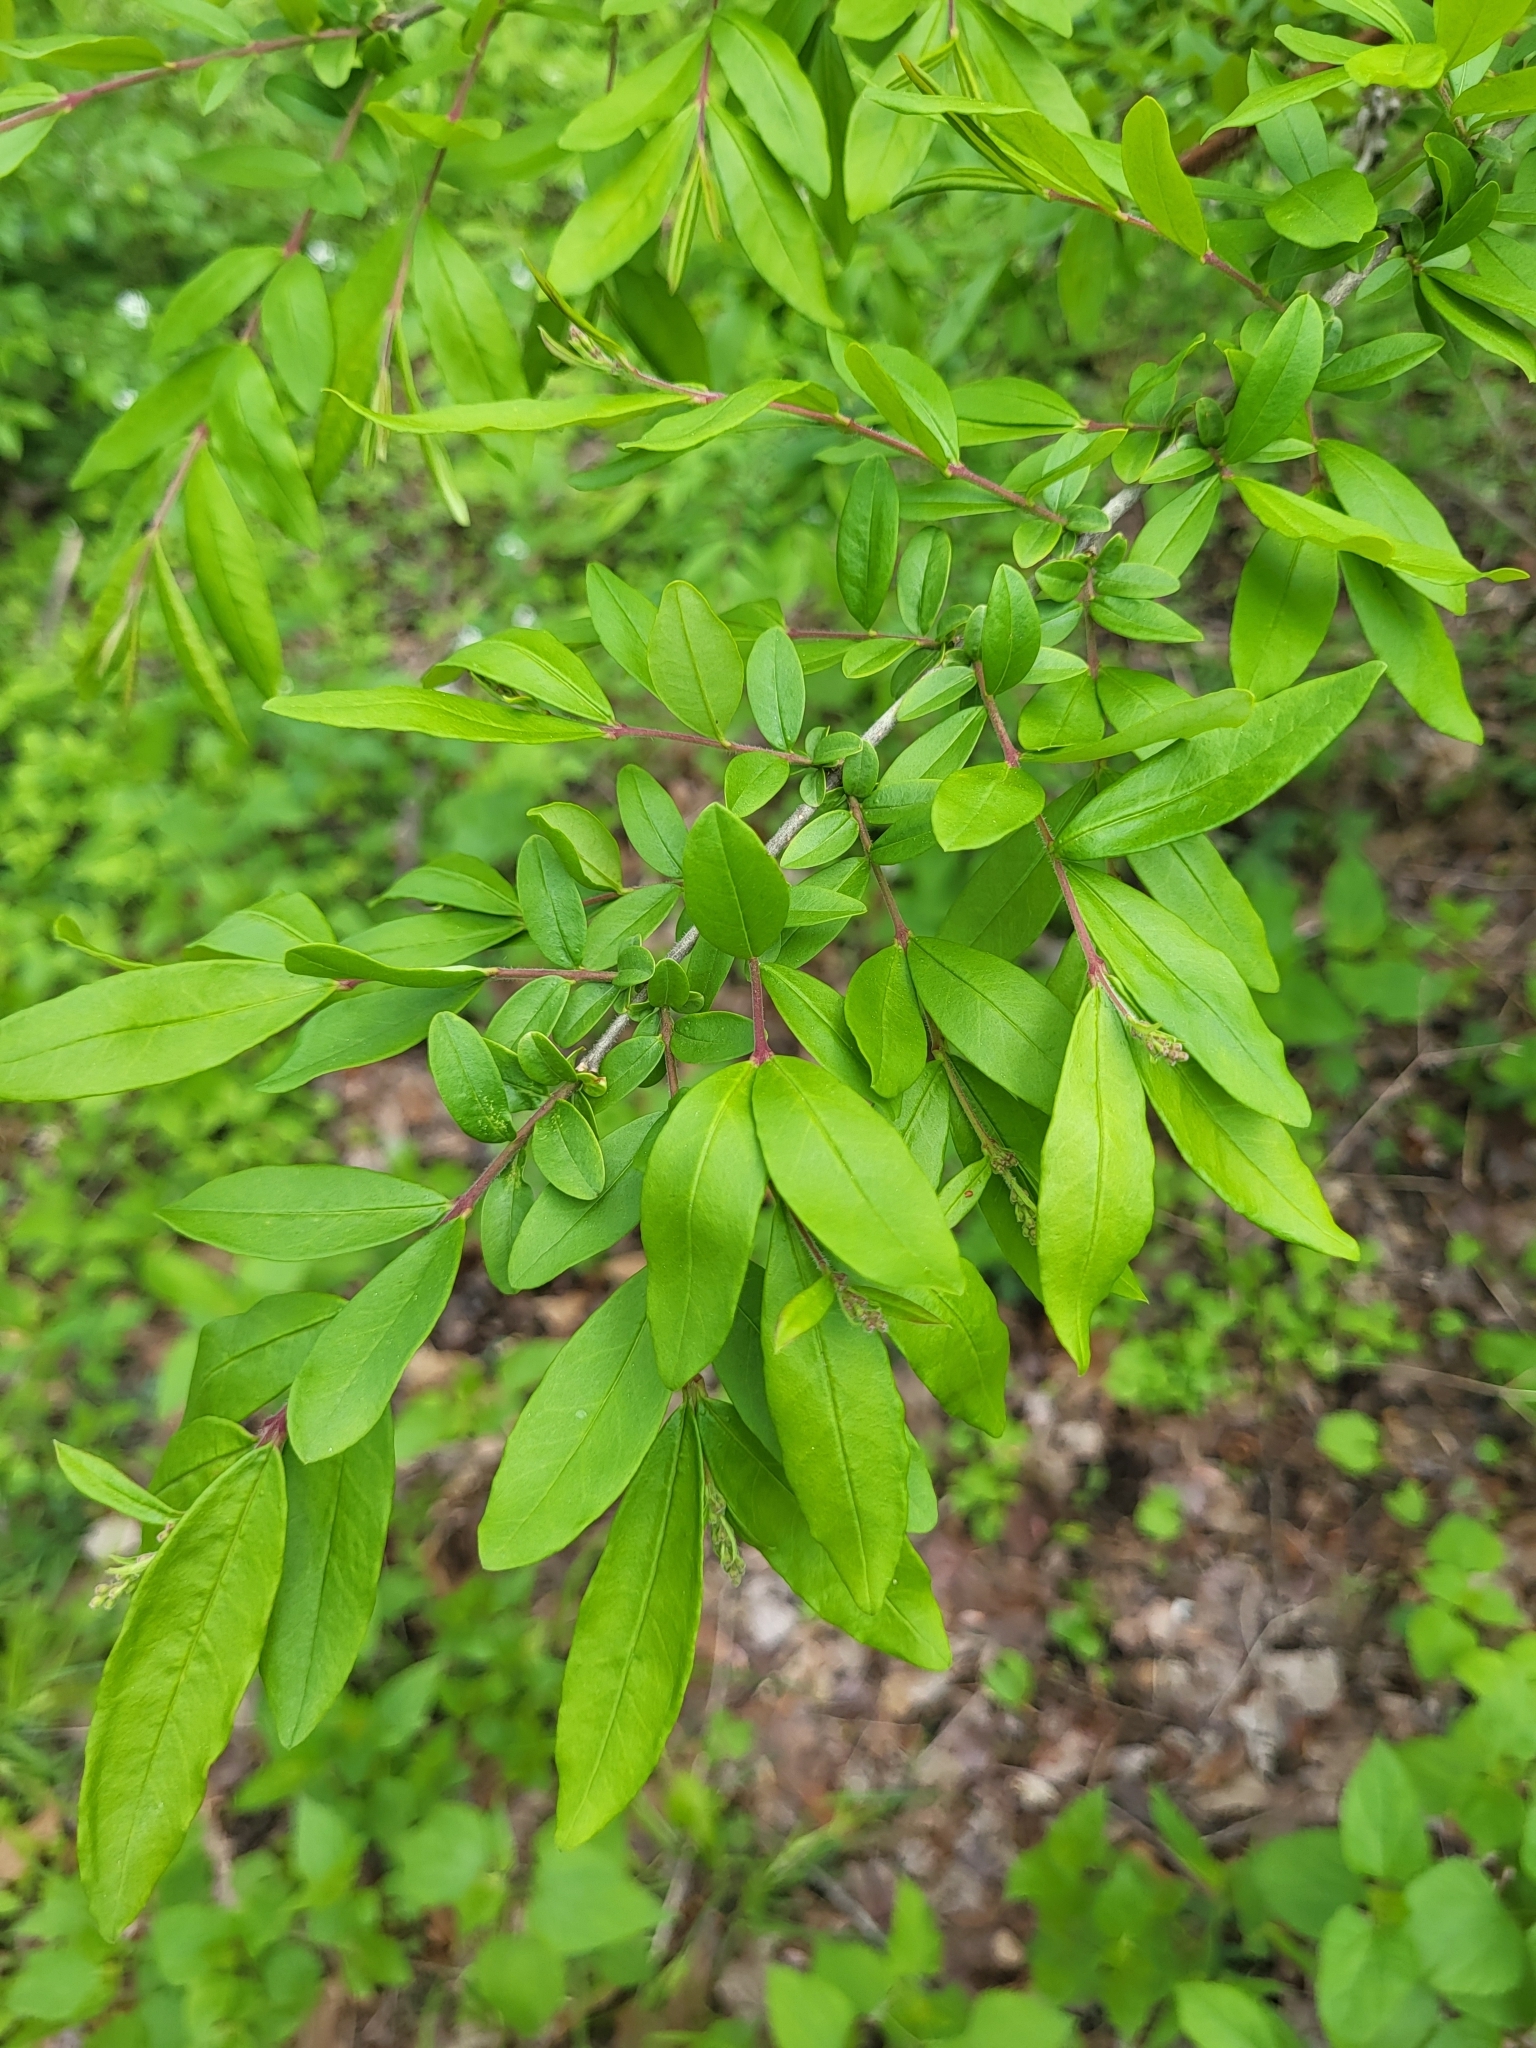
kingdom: Plantae
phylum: Tracheophyta
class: Magnoliopsida
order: Lamiales
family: Oleaceae
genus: Ligustrum
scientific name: Ligustrum obtusifolium
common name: Border privet
